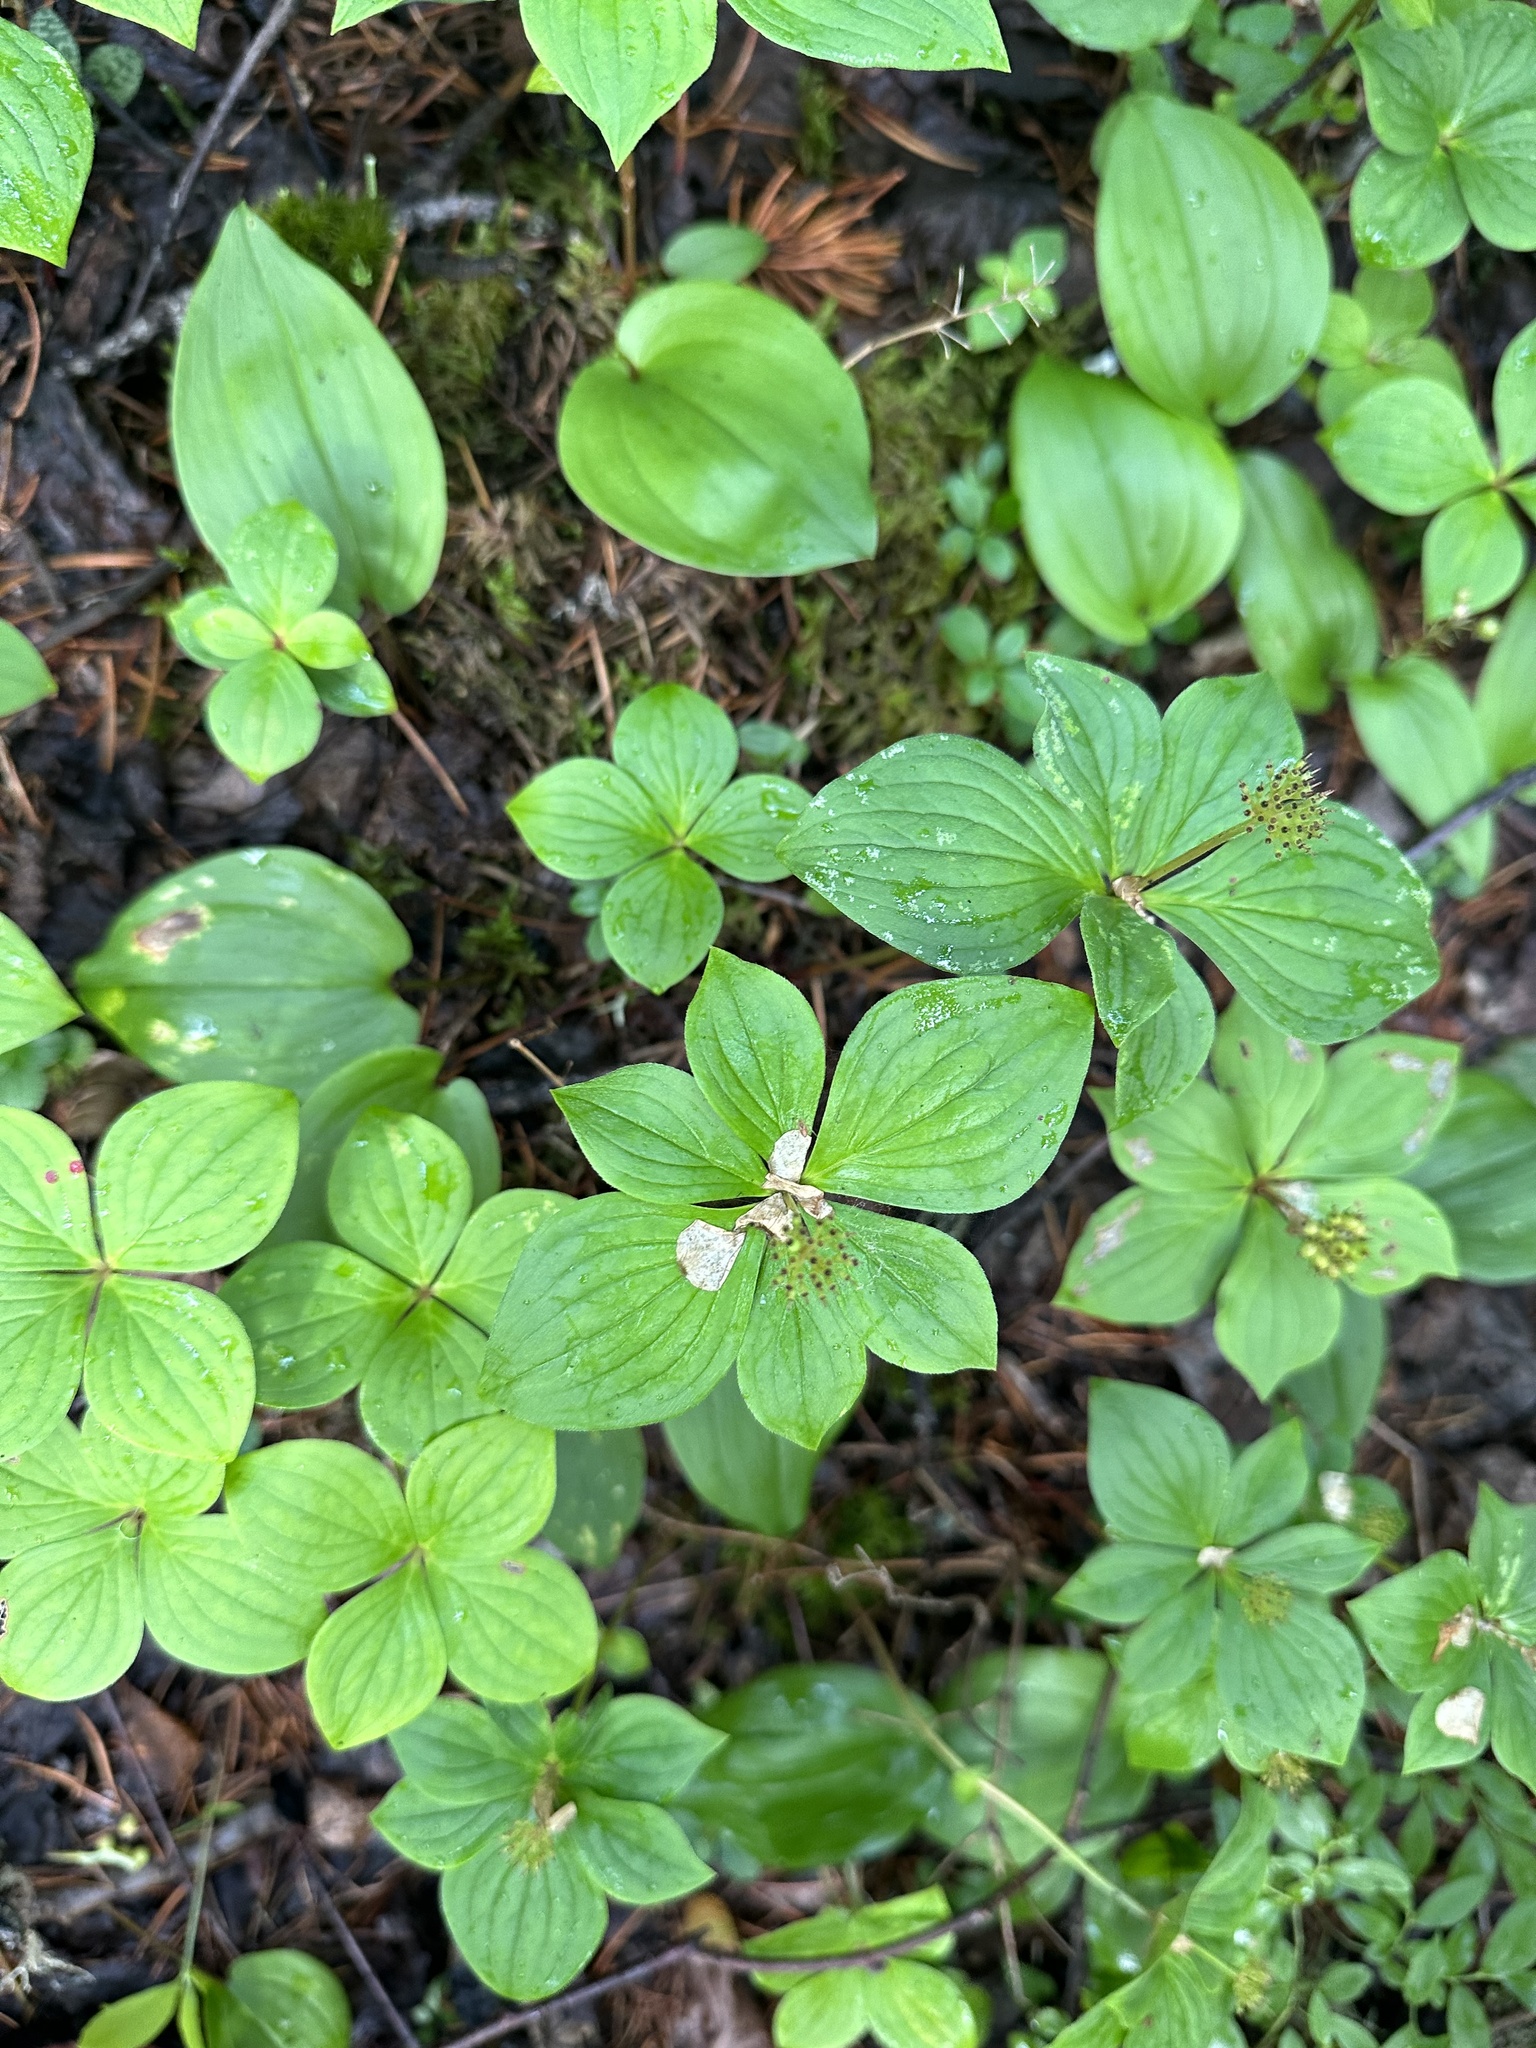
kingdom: Plantae
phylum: Tracheophyta
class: Magnoliopsida
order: Cornales
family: Cornaceae
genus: Cornus
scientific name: Cornus canadensis
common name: Creeping dogwood
